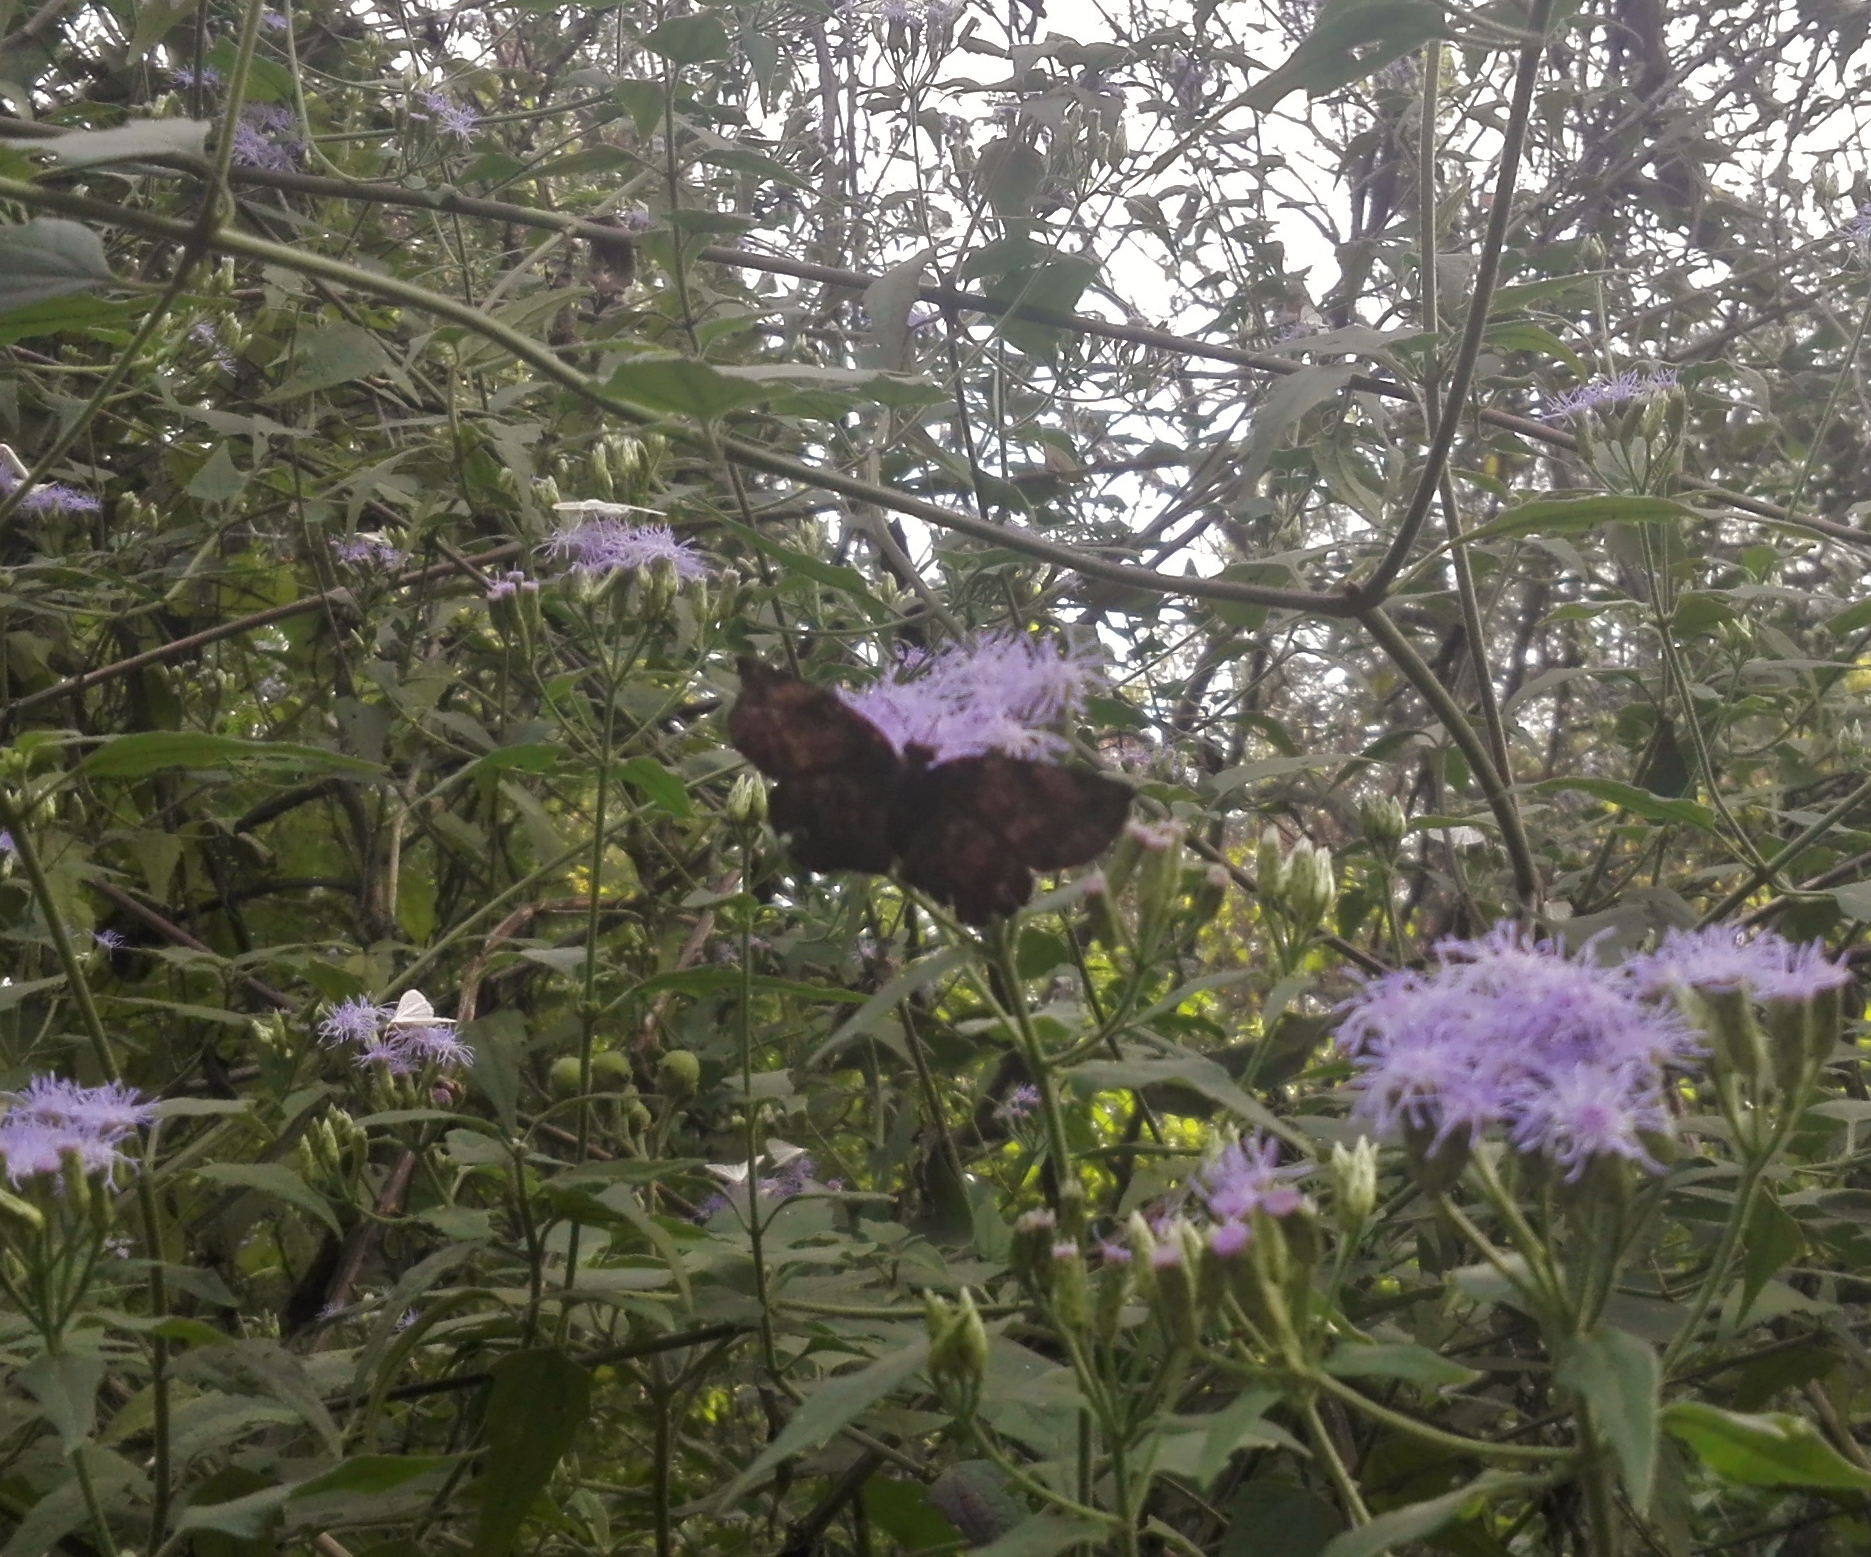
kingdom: Animalia
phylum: Arthropoda
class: Insecta
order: Lepidoptera
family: Hesperiidae
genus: Achlyodes
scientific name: Achlyodes thraso
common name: Sickle-winged skipper
